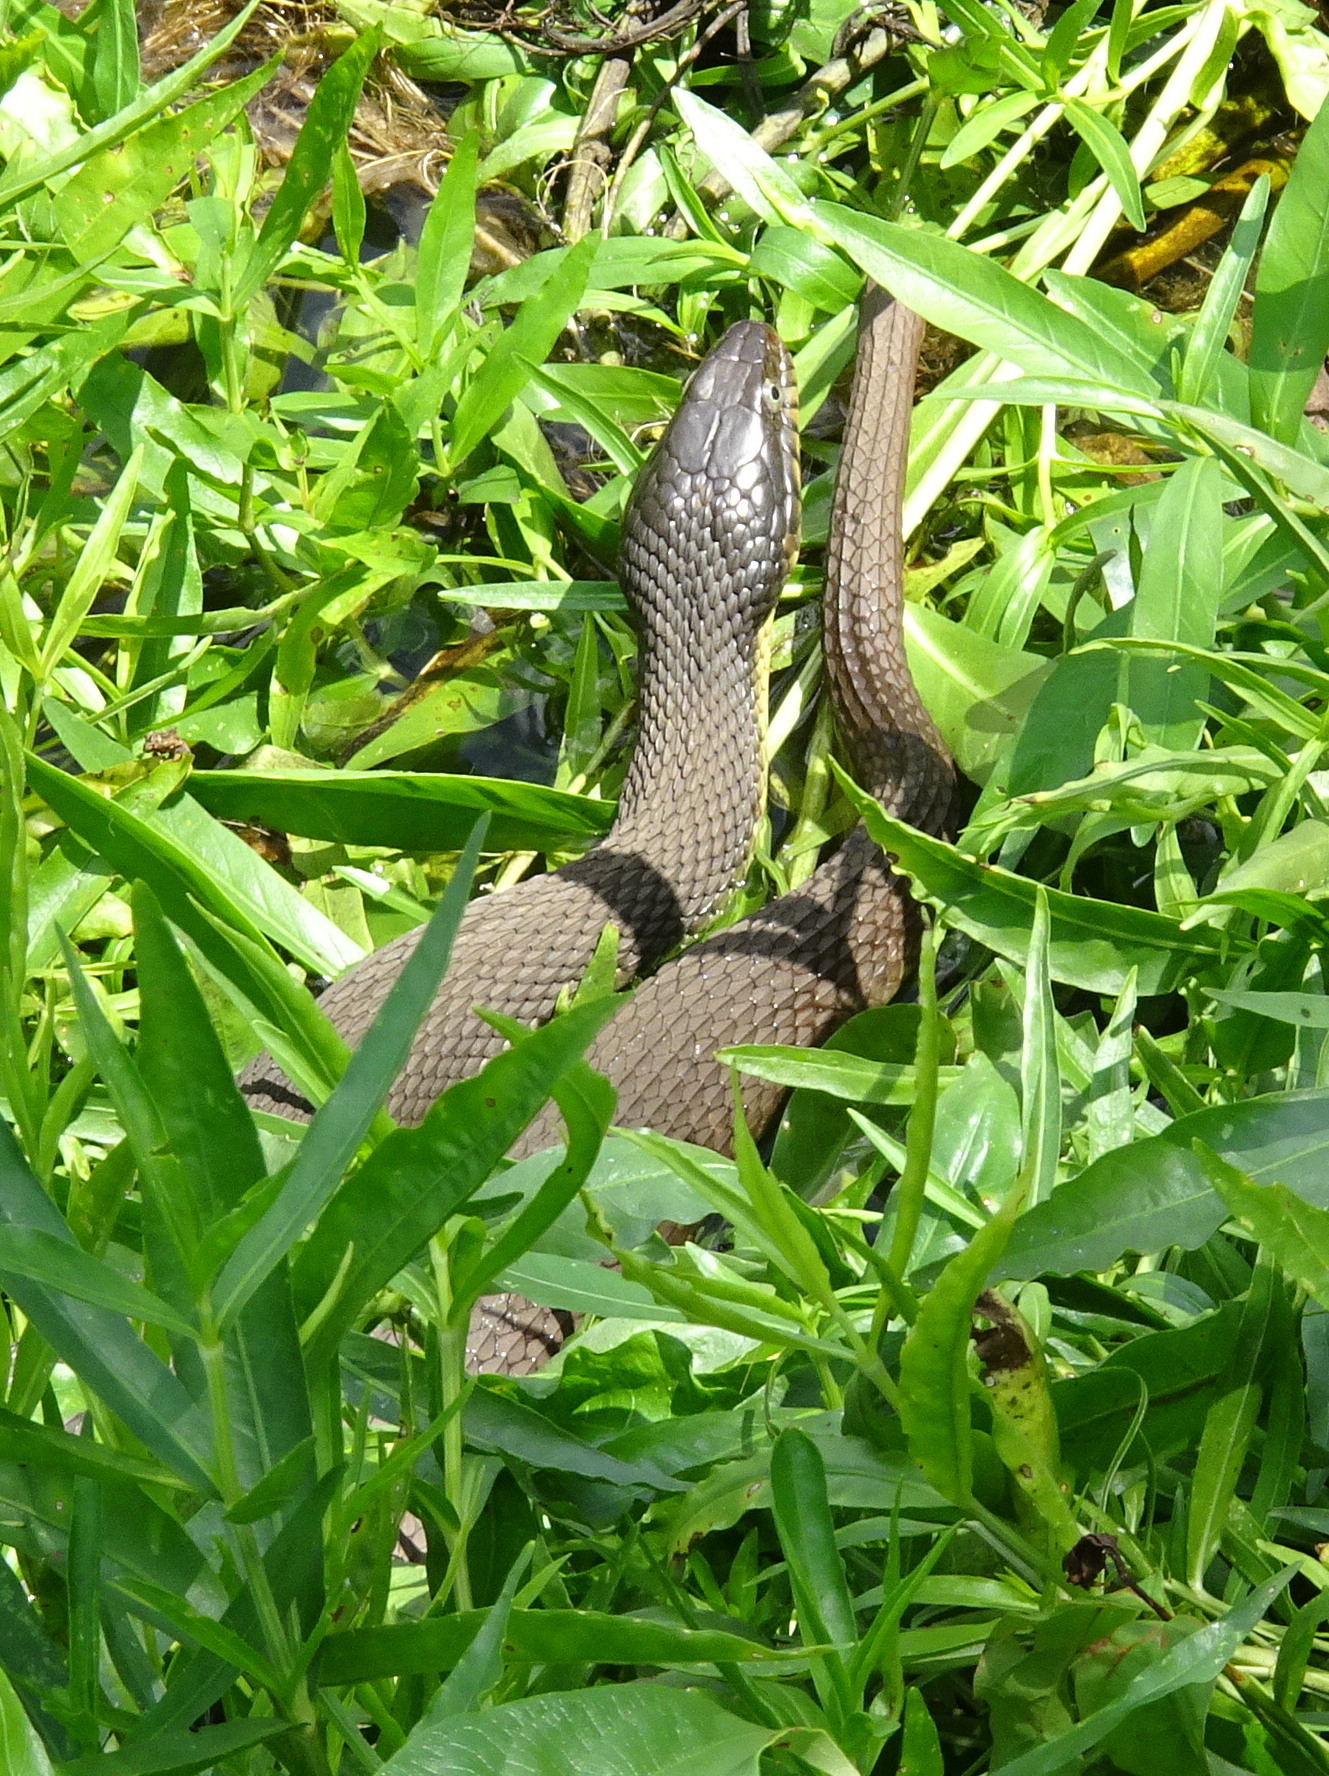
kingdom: Animalia
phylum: Chordata
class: Squamata
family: Colubridae
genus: Nerodia
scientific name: Nerodia erythrogaster
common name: Plainbelly water snake
